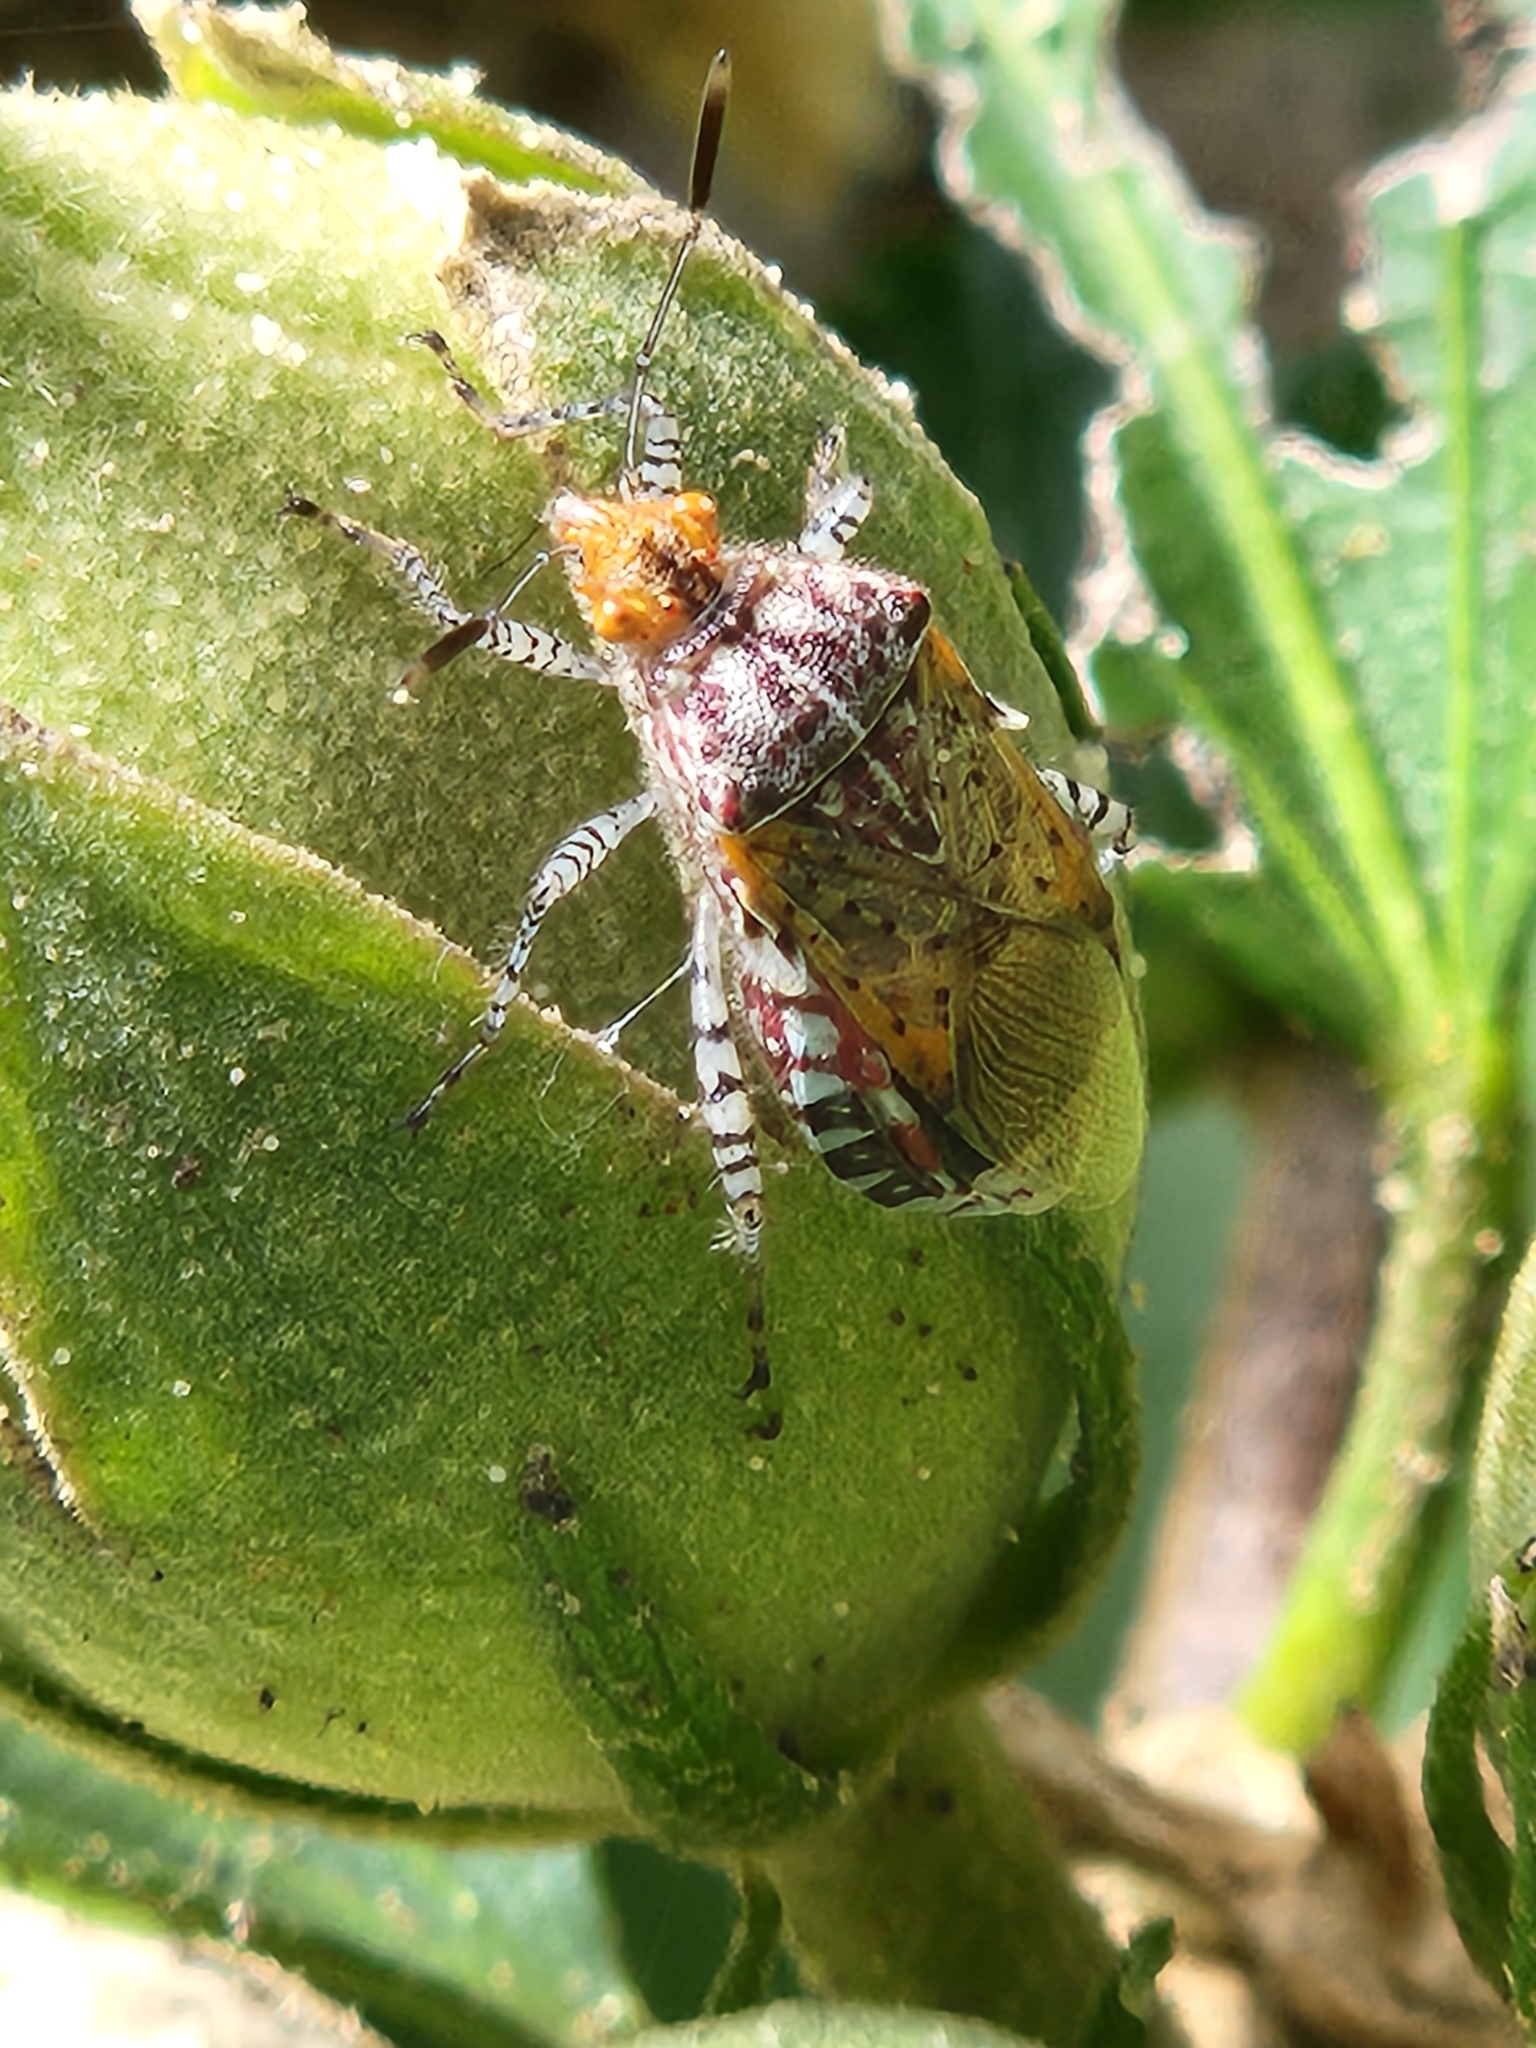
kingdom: Animalia
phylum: Arthropoda
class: Insecta
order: Hemiptera
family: Rhopalidae
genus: Niesthrea
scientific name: Niesthrea louisianica
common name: Scentless plant bug
